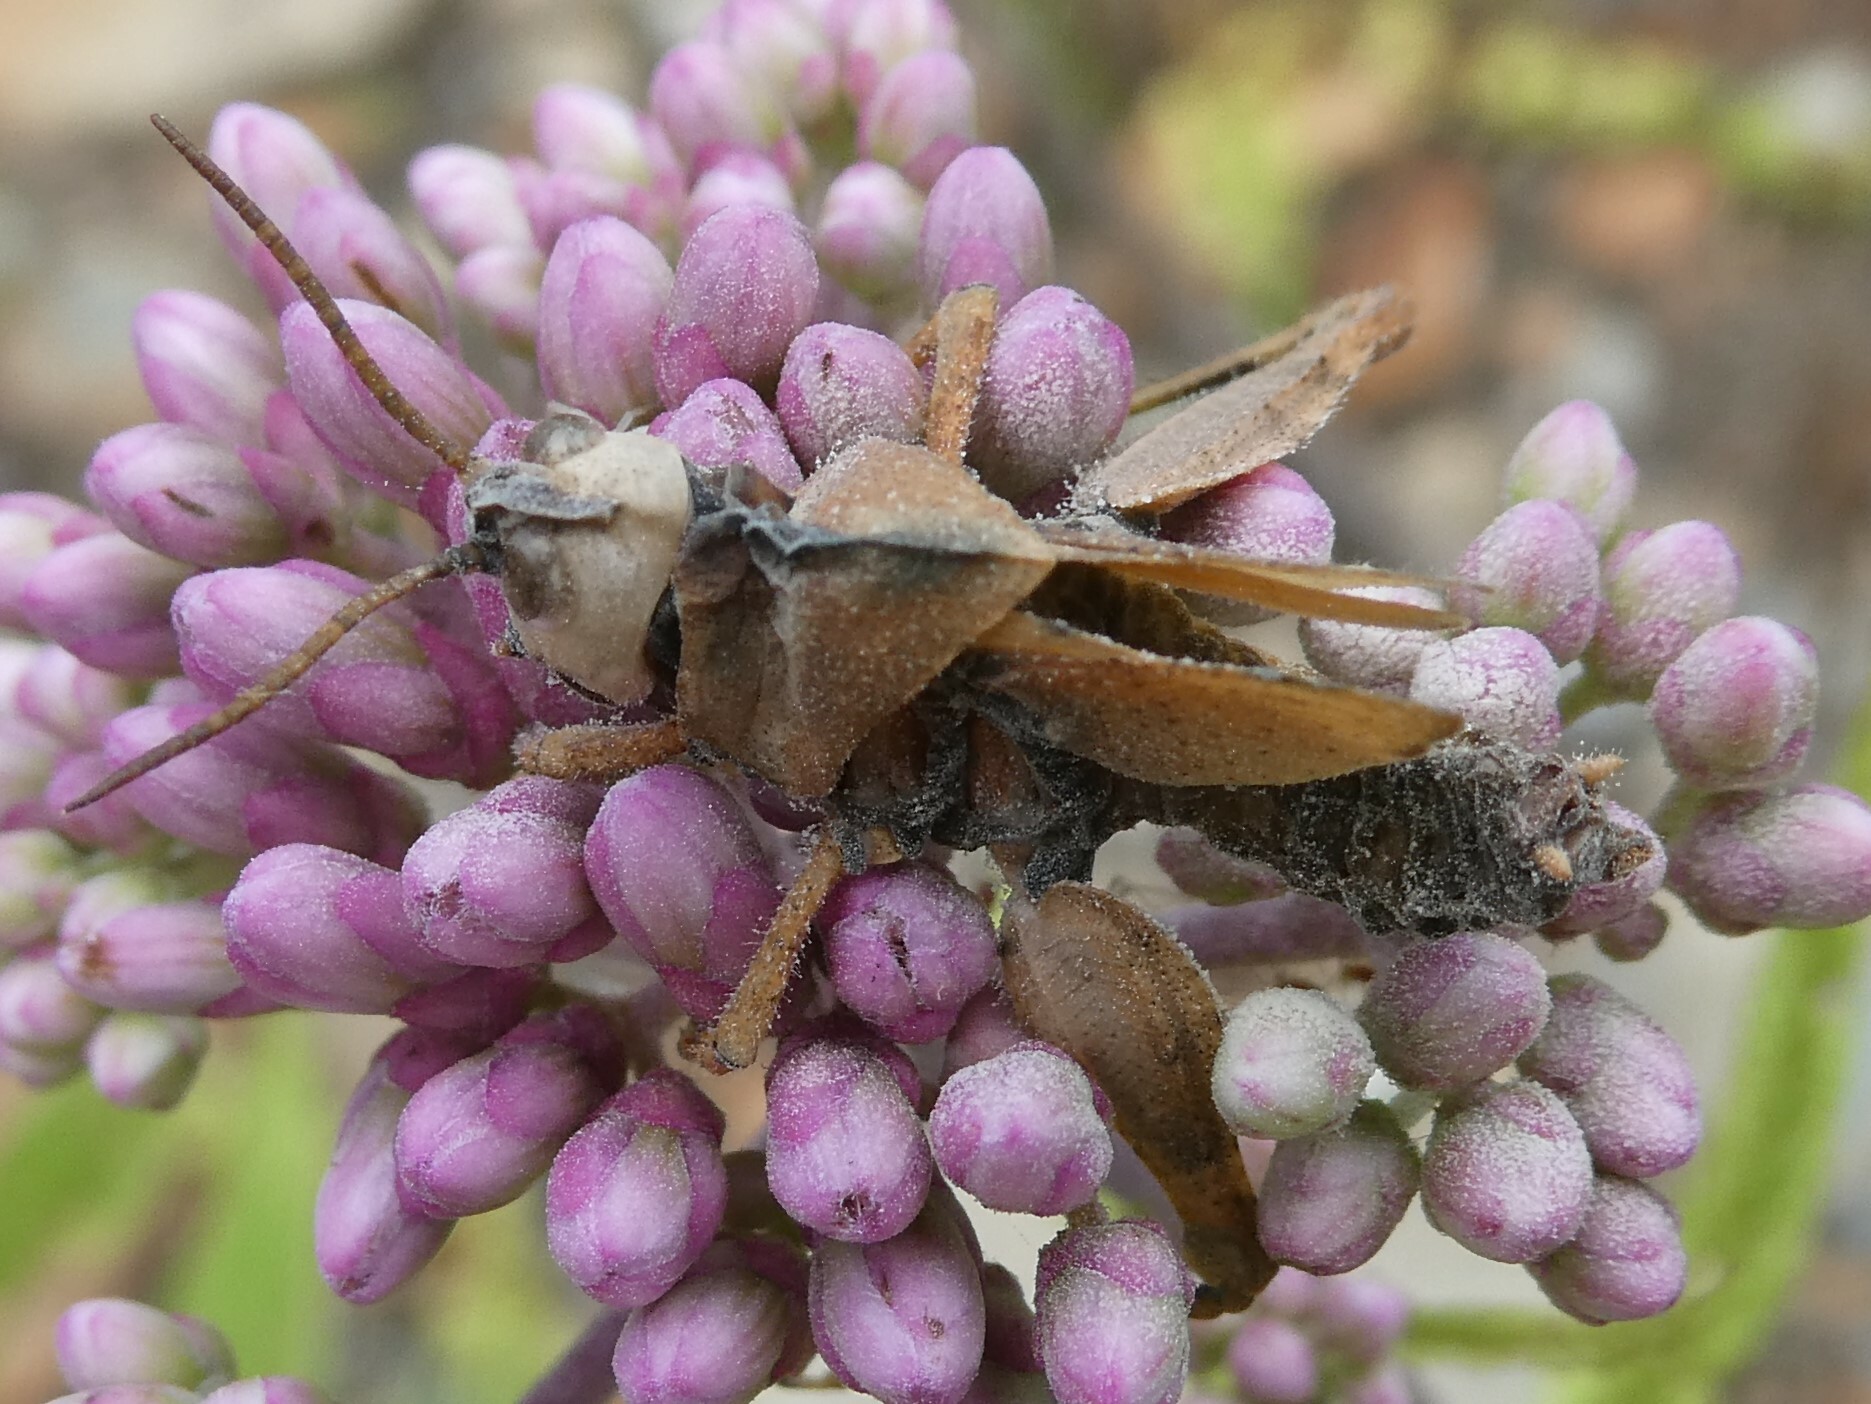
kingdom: Animalia
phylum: Arthropoda
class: Insecta
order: Orthoptera
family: Acrididae
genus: Dissosteira
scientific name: Dissosteira carolina
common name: Carolina grasshopper
